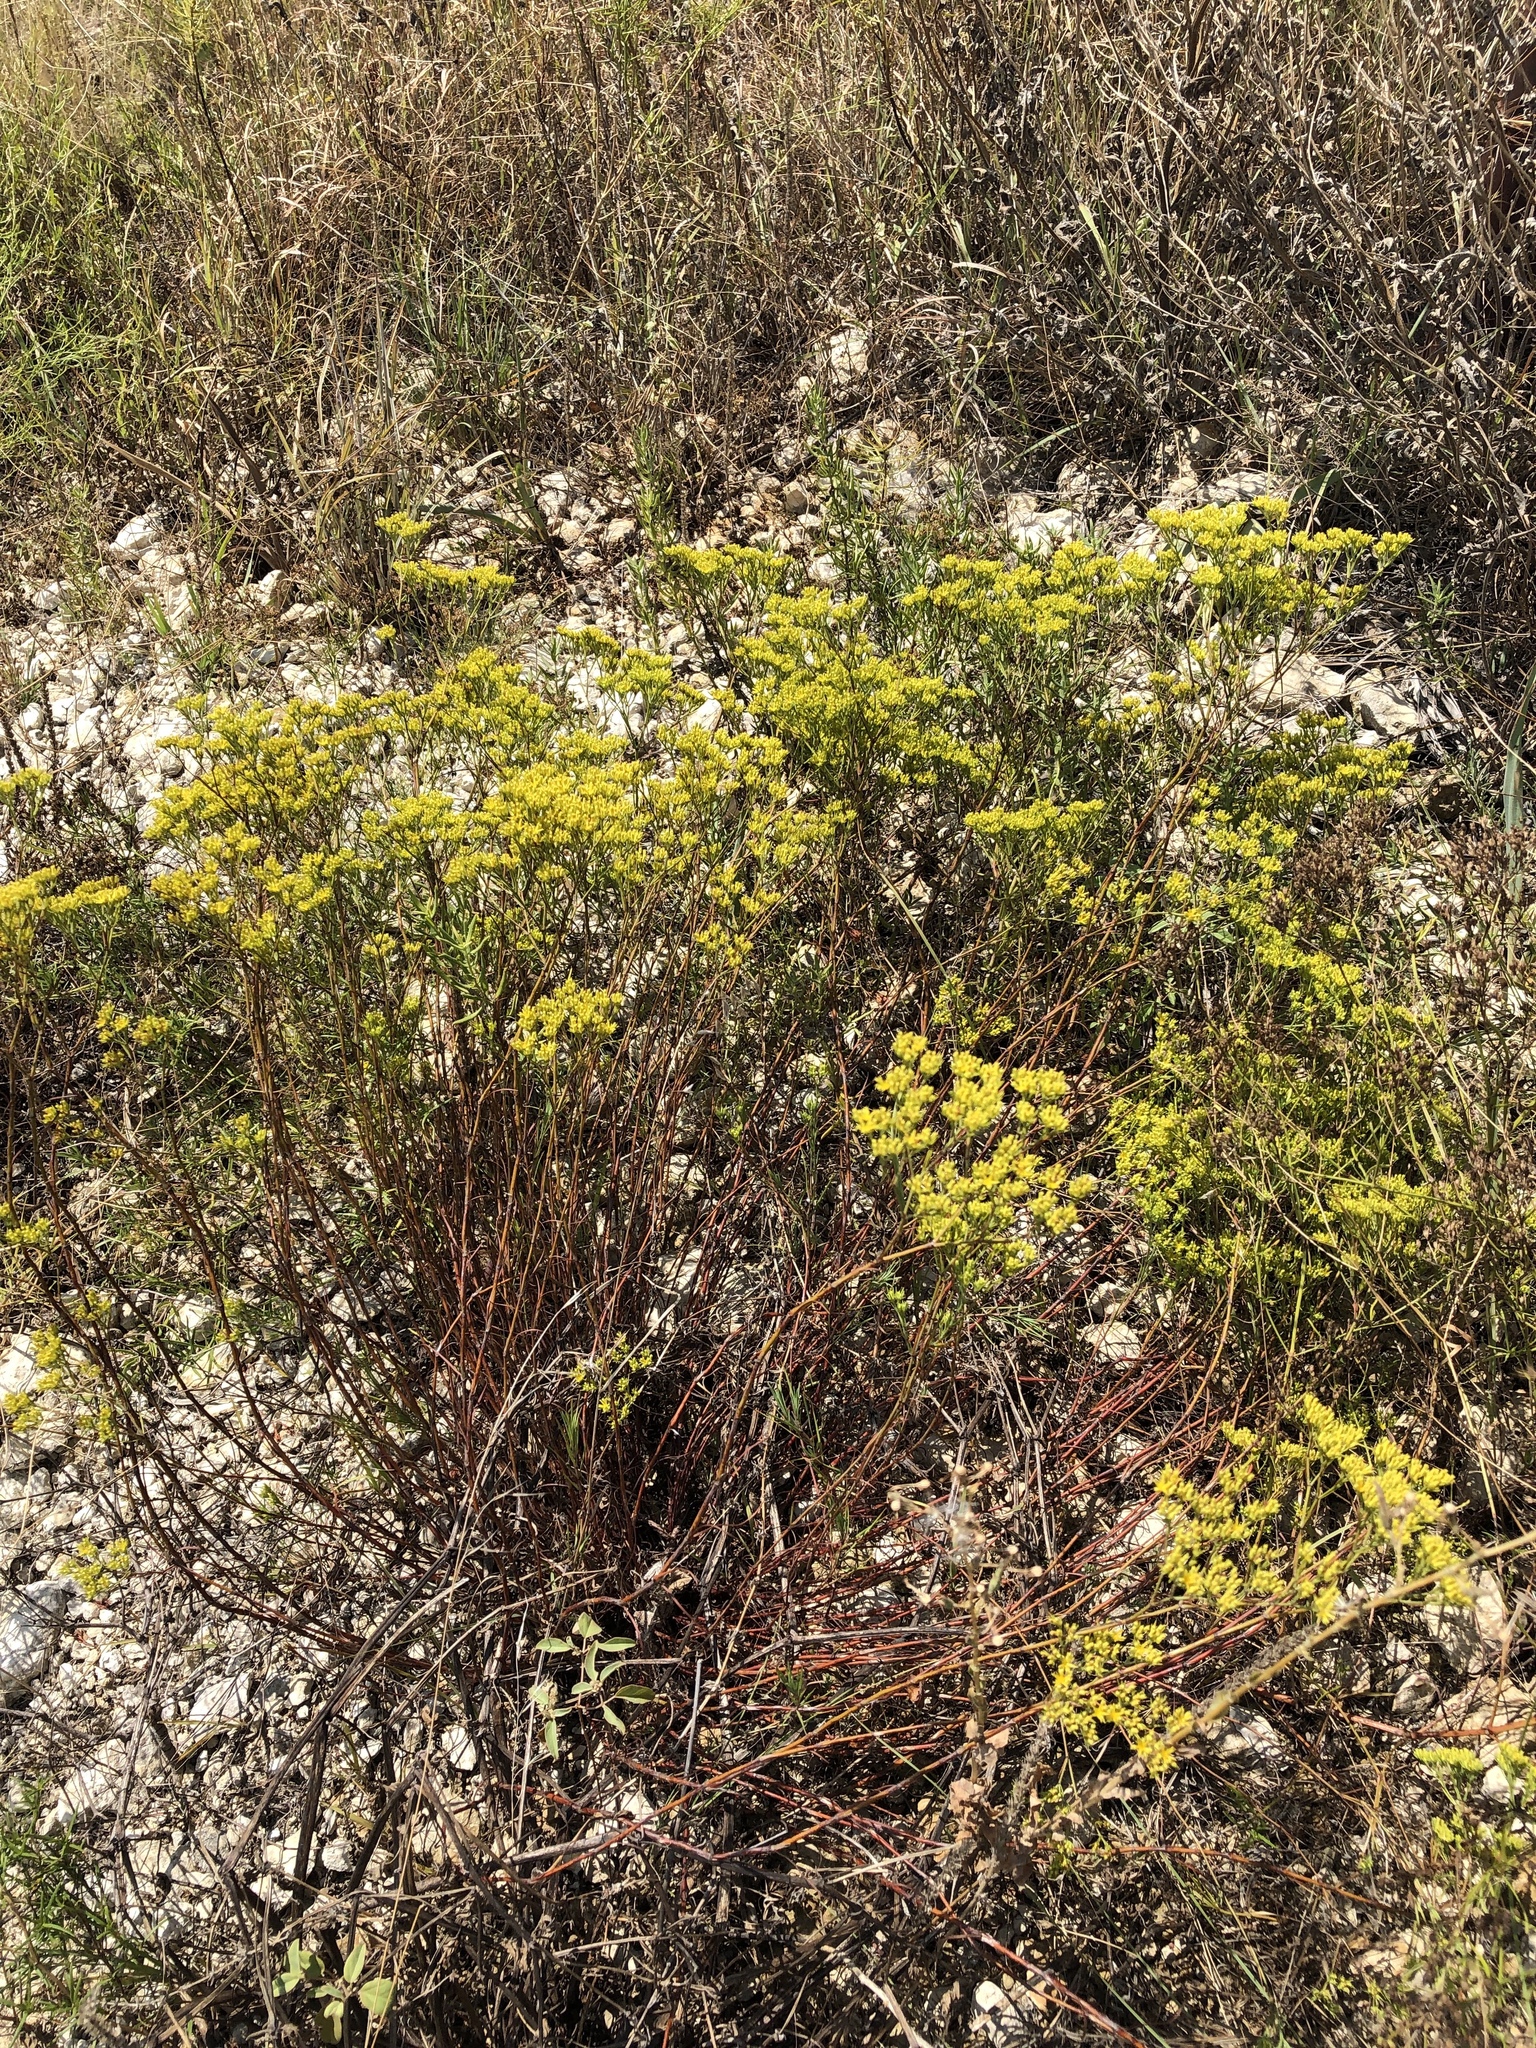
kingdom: Plantae
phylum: Tracheophyta
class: Magnoliopsida
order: Caryophyllales
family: Caryophyllaceae
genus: Paronychia
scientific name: Paronychia virginica
